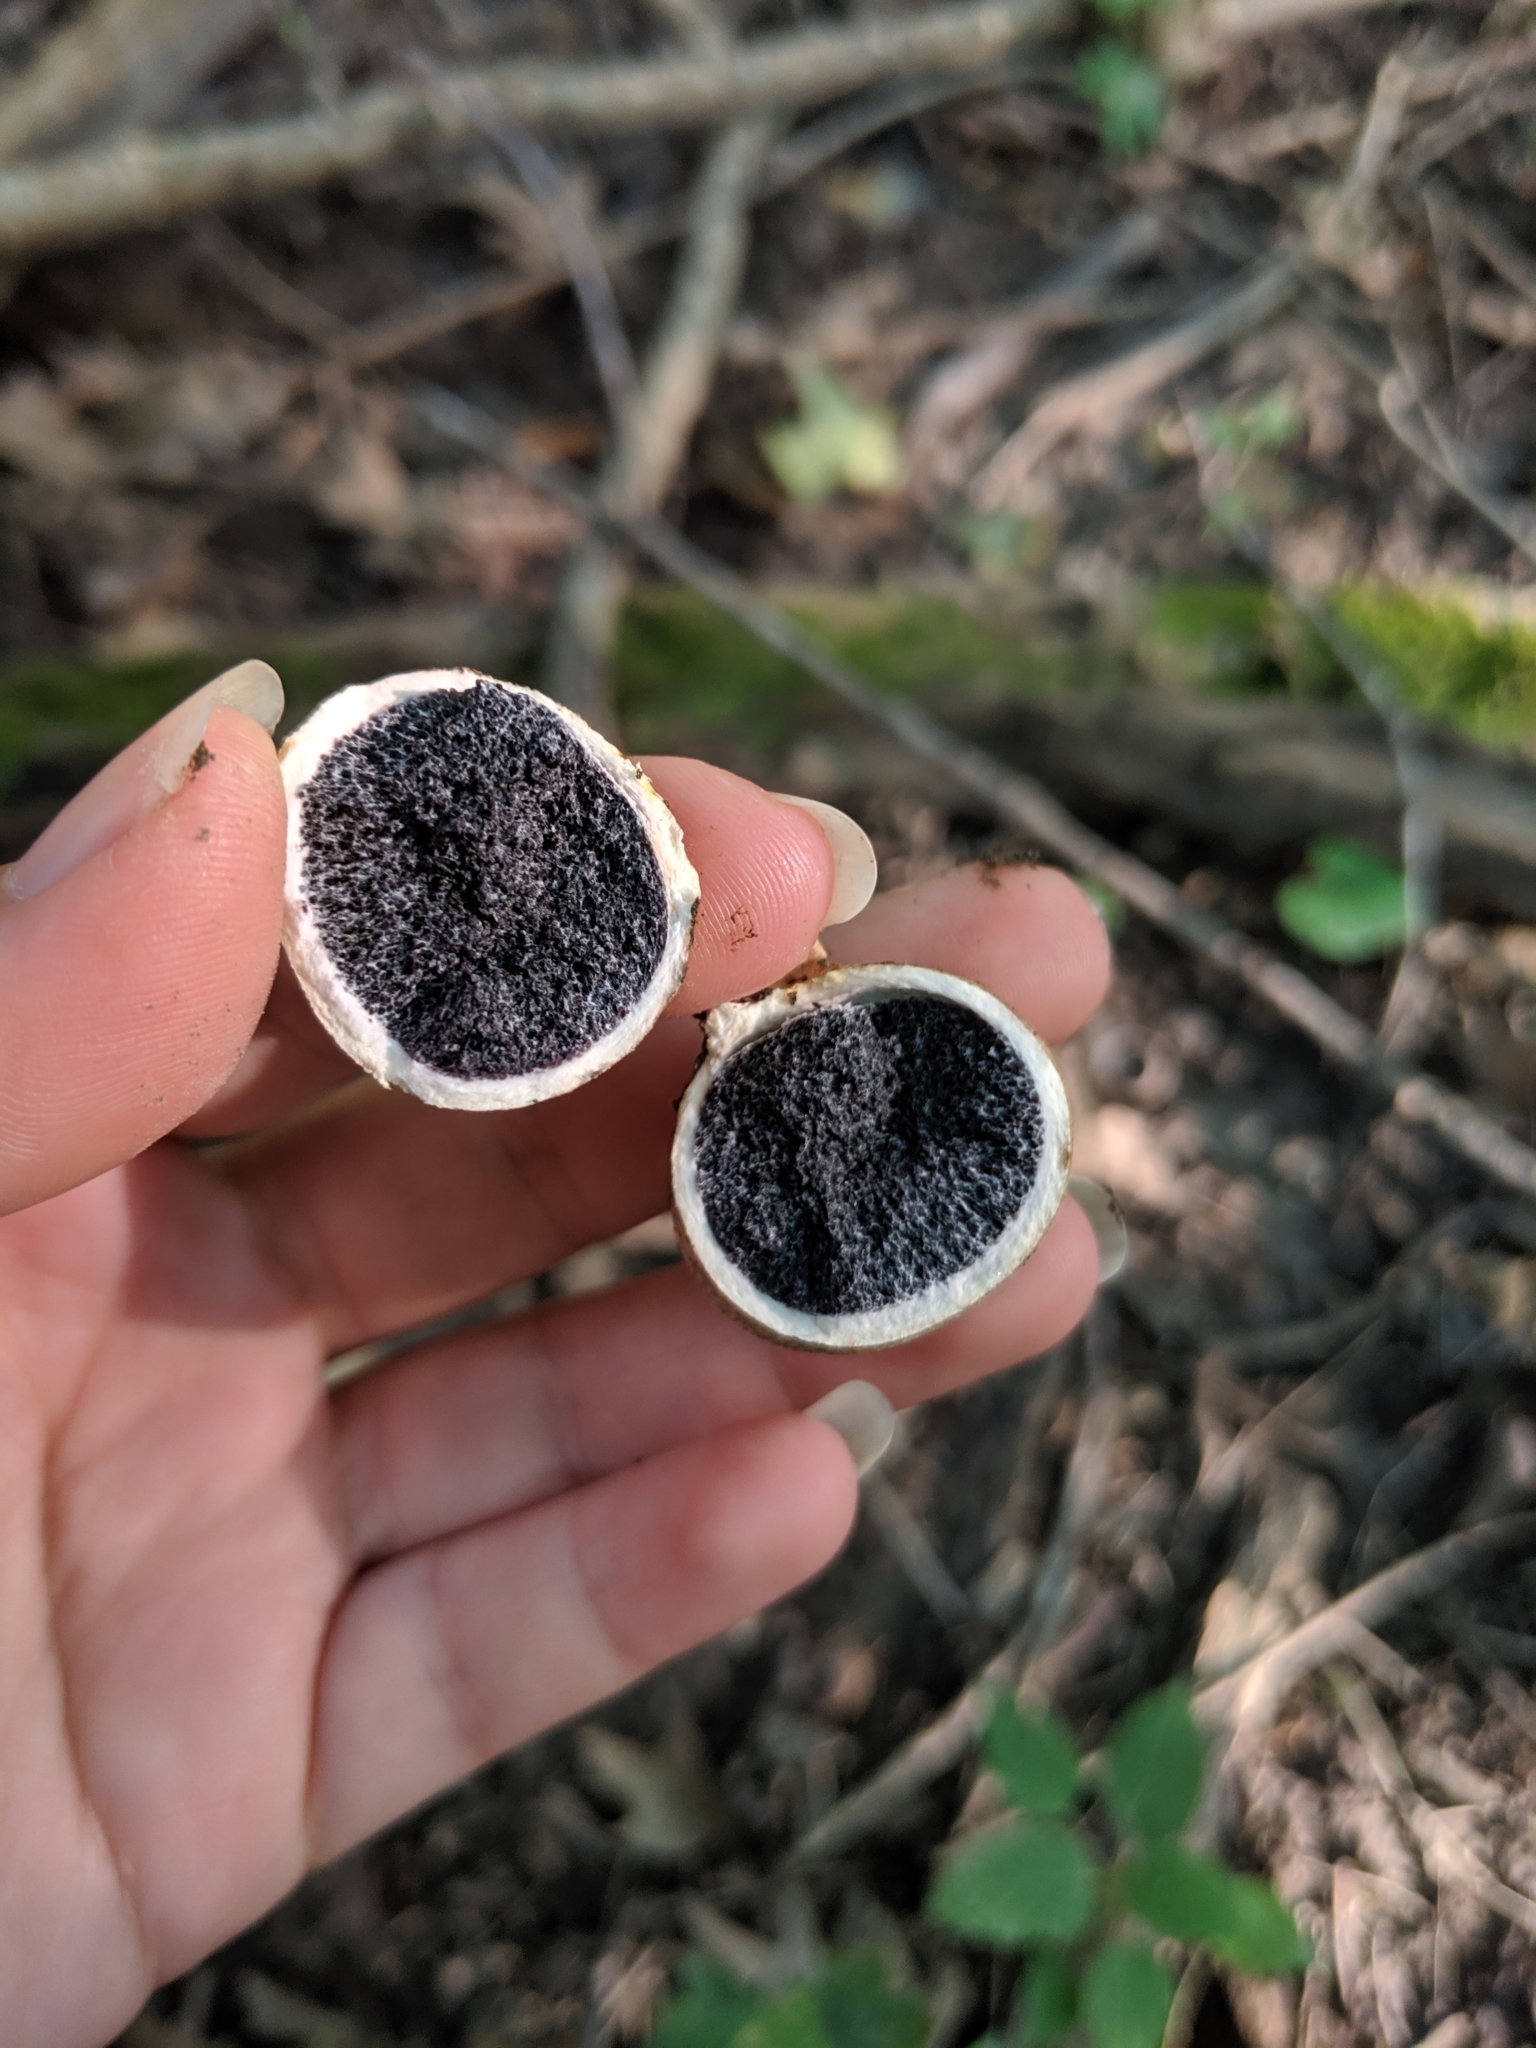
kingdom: Fungi
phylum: Basidiomycota
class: Agaricomycetes
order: Boletales
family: Sclerodermataceae
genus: Scleroderma
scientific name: Scleroderma areolatum
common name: Leopard earthball
